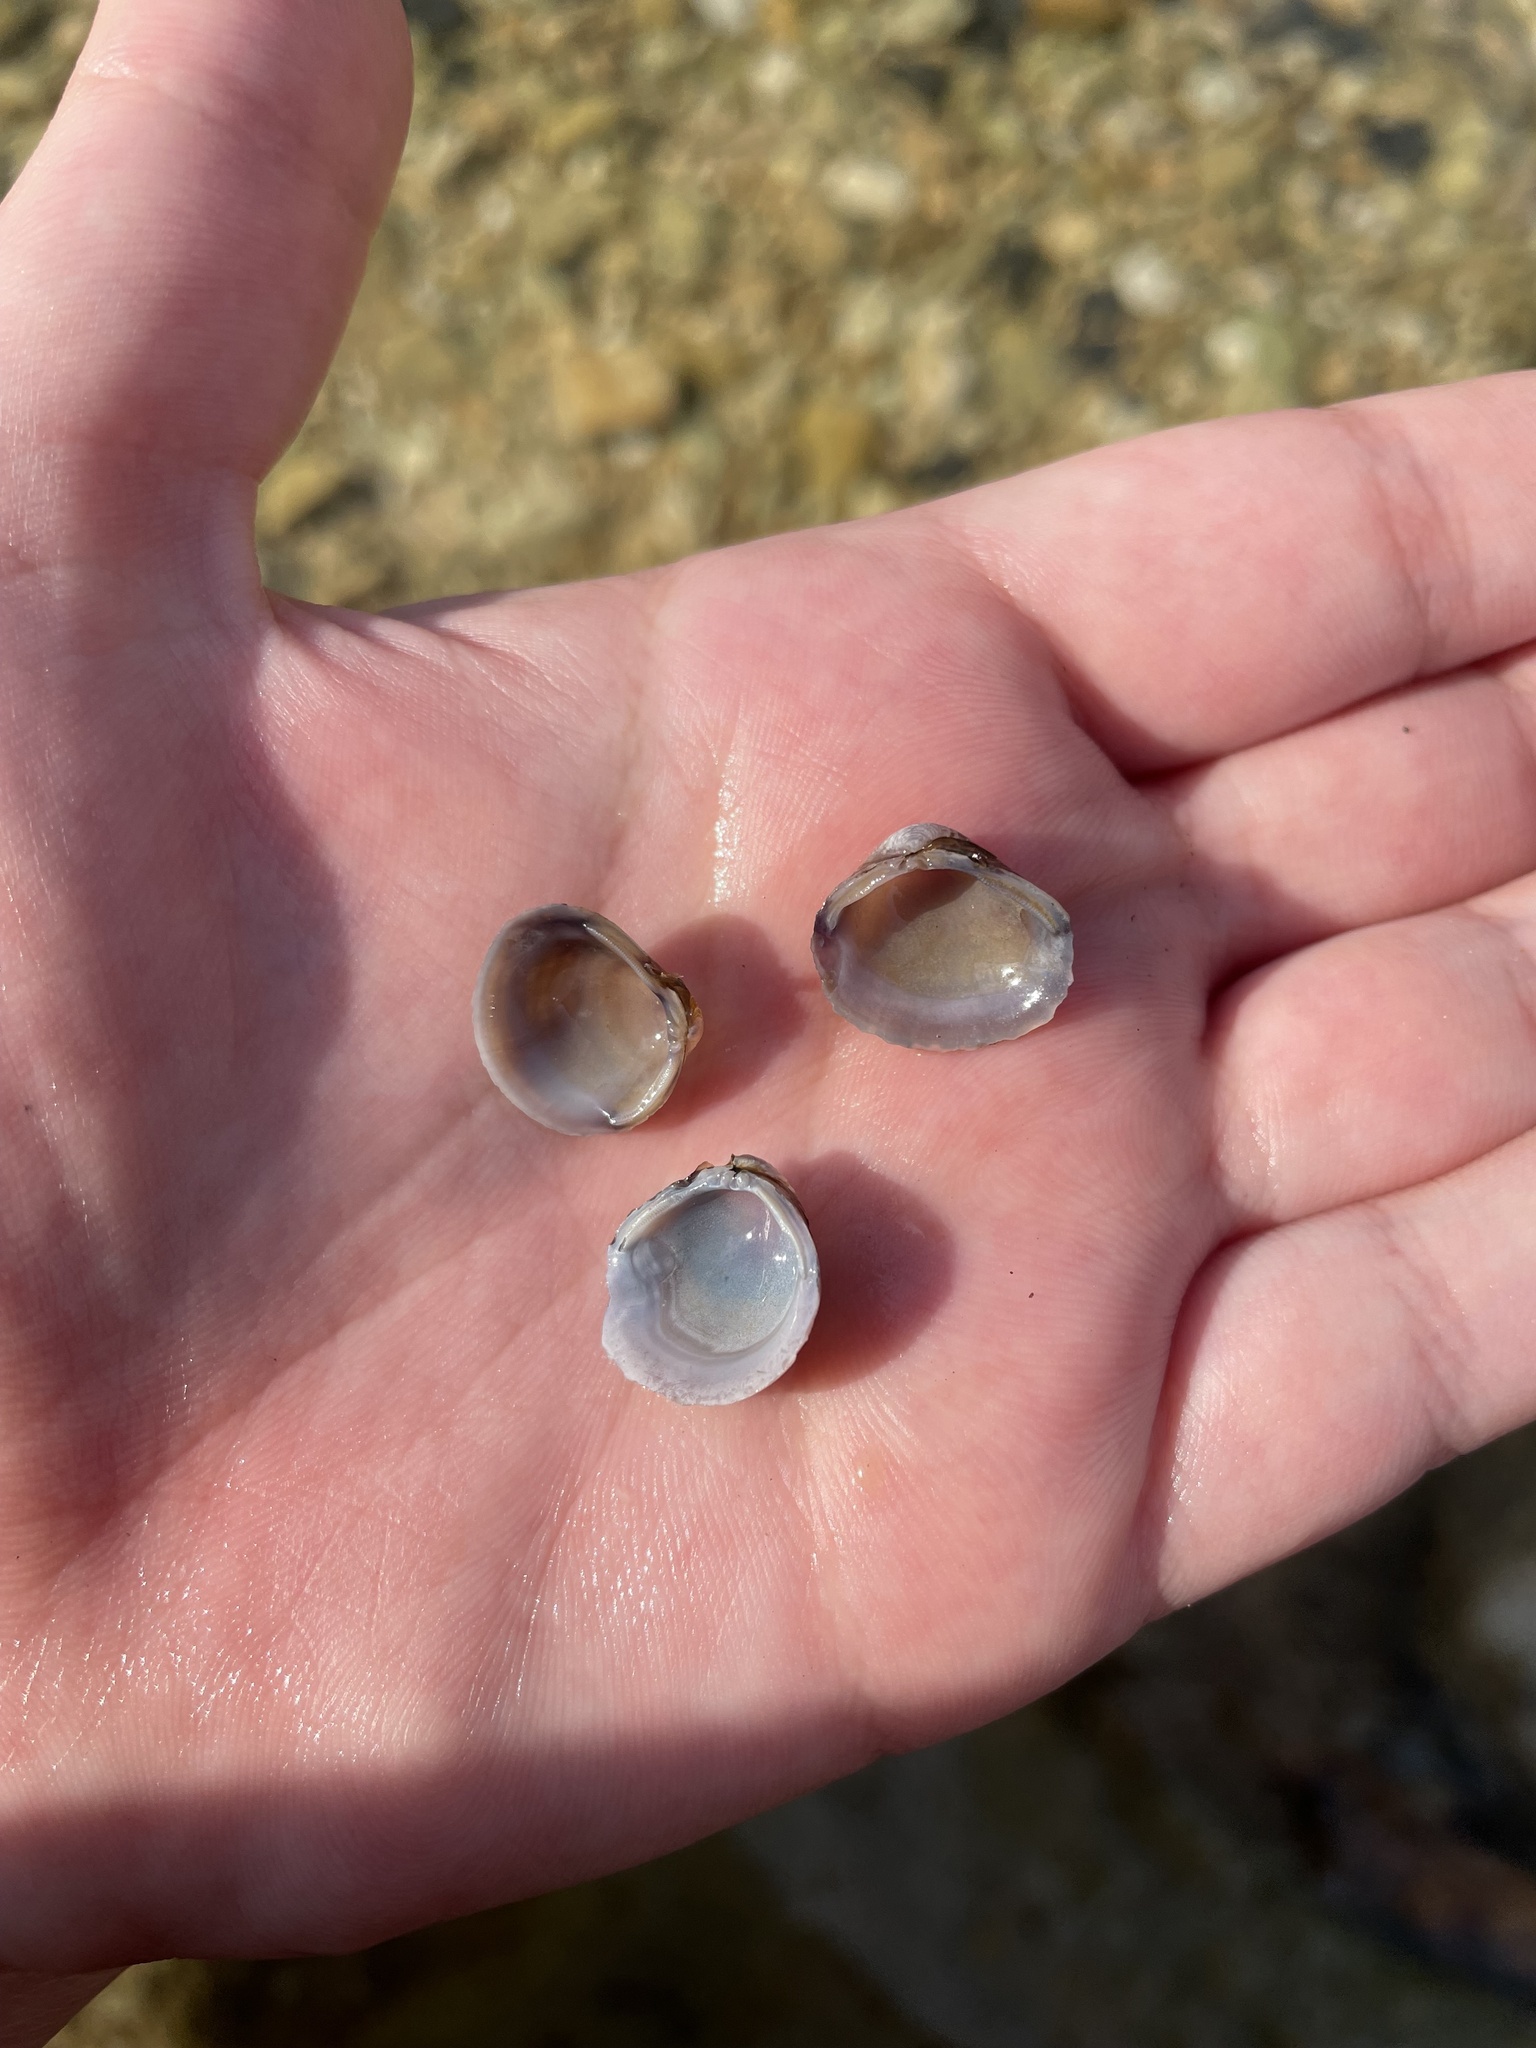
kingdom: Animalia
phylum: Mollusca
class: Bivalvia
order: Venerida
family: Cyrenidae
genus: Corbicula
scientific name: Corbicula fluminea
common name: Asian clam
